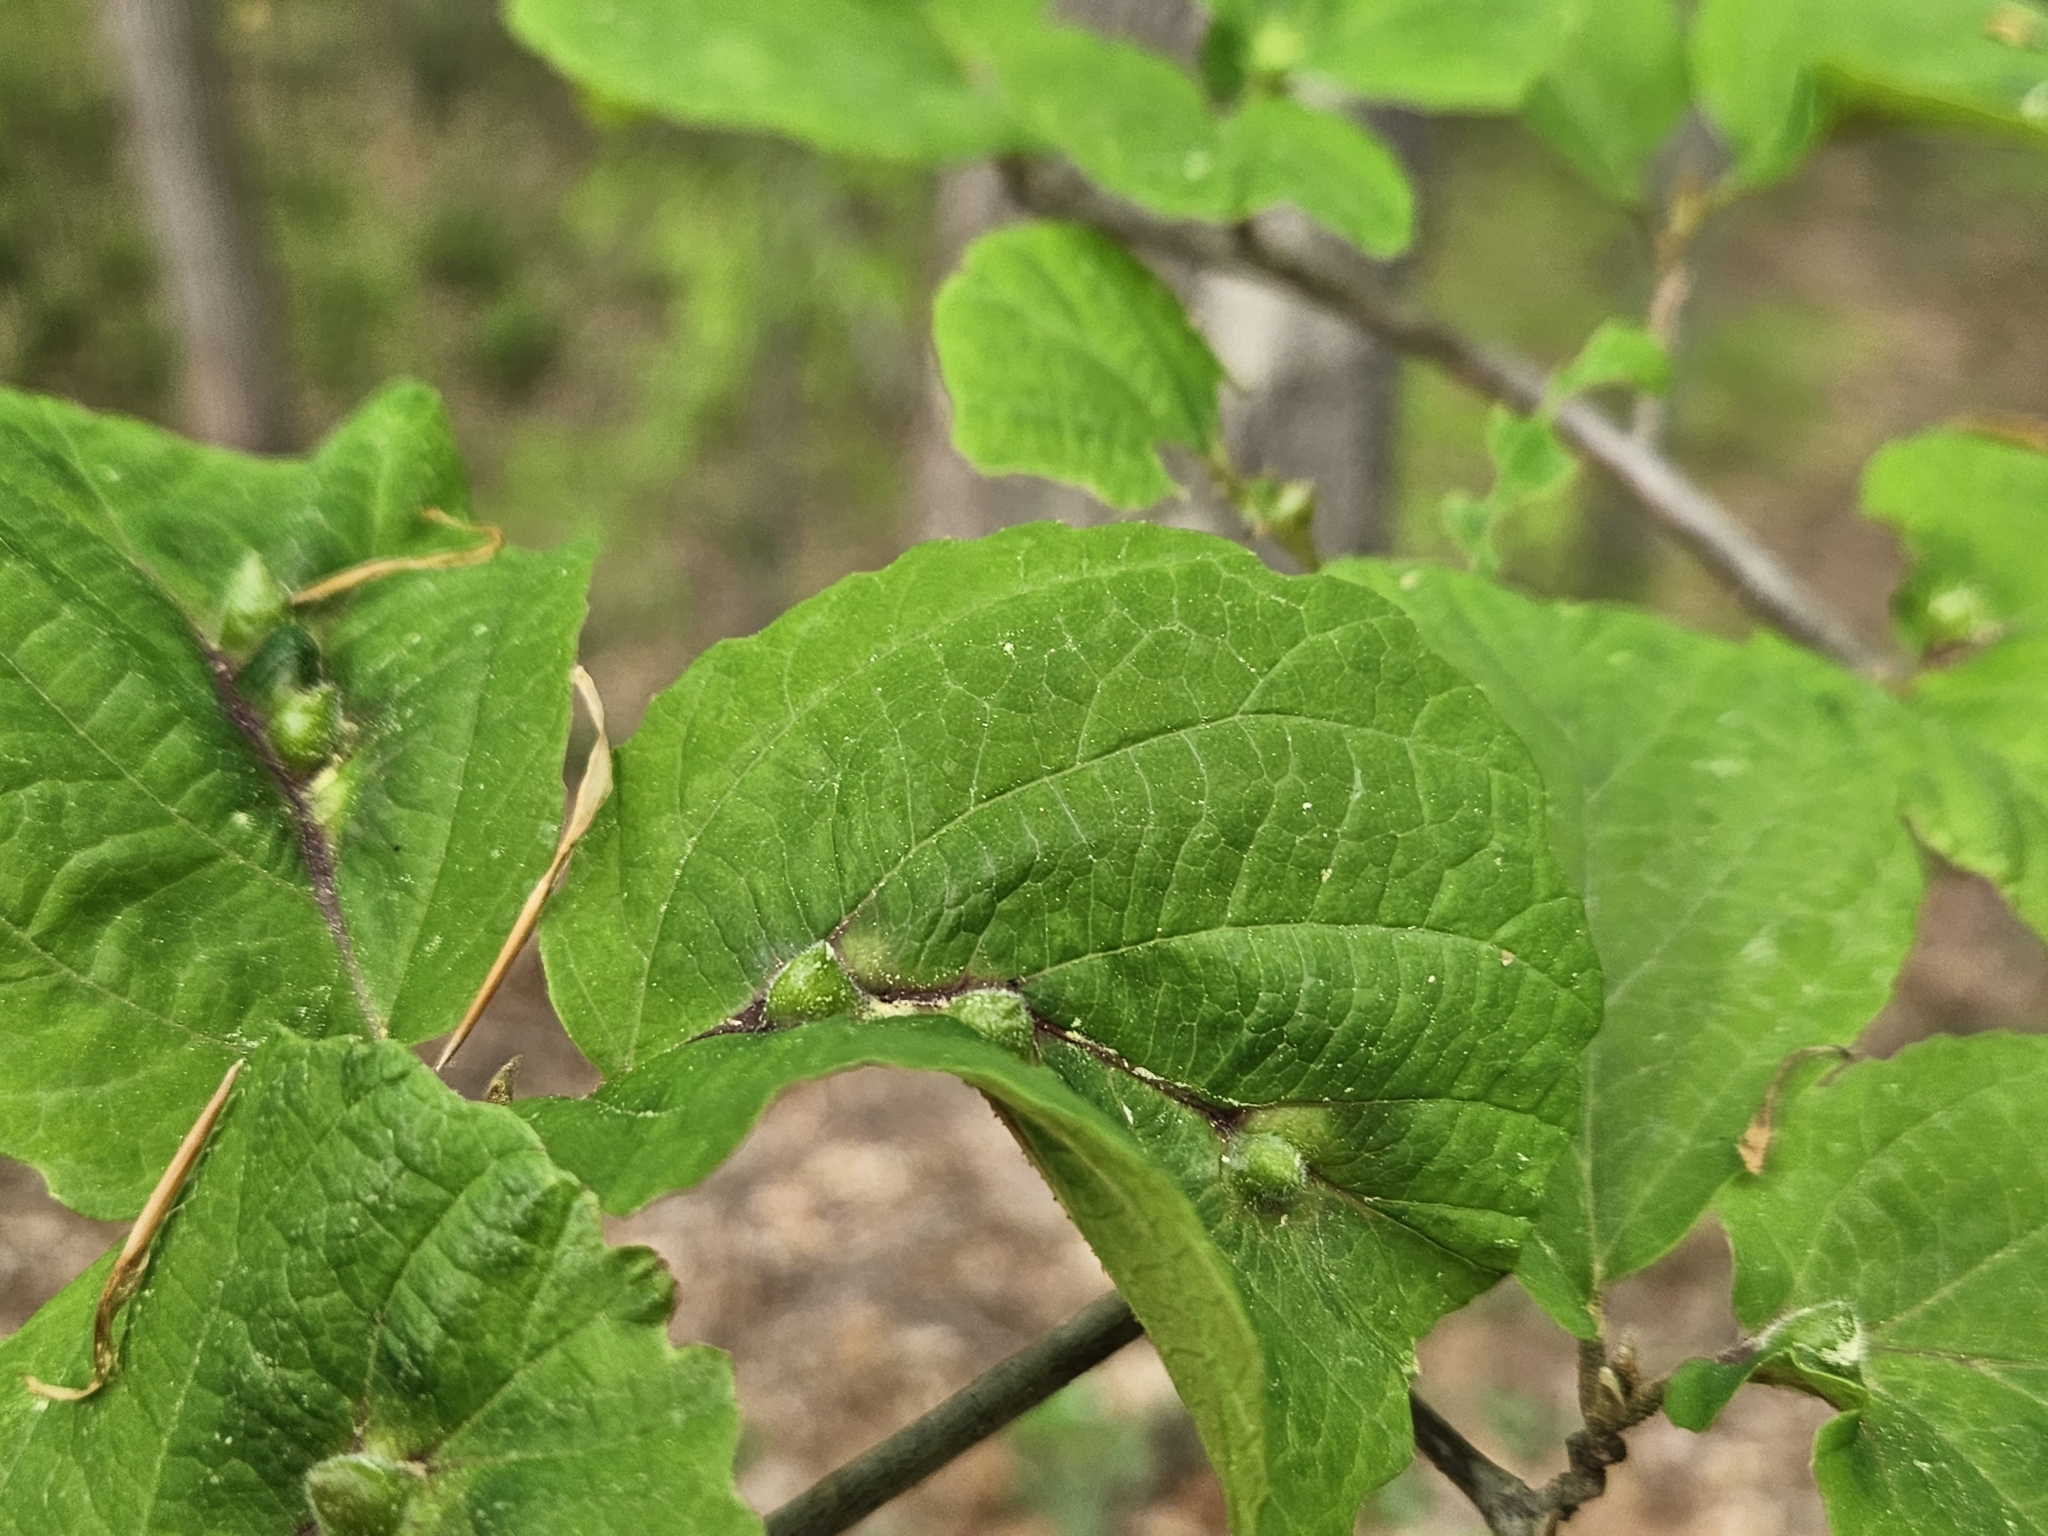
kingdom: Animalia
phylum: Arthropoda
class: Insecta
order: Hemiptera
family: Aphididae
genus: Hormaphis
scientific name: Hormaphis hamamelidis
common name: Witch-hazel cone gall aphid
